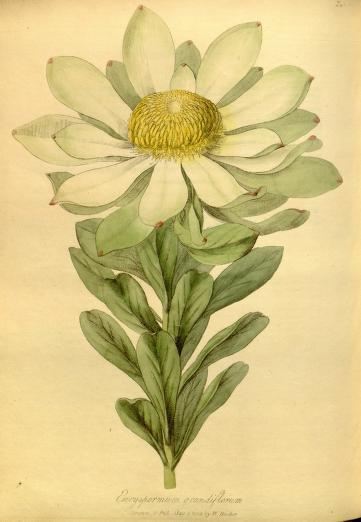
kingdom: Plantae
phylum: Tracheophyta
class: Magnoliopsida
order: Proteales
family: Proteaceae
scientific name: Proteaceae
